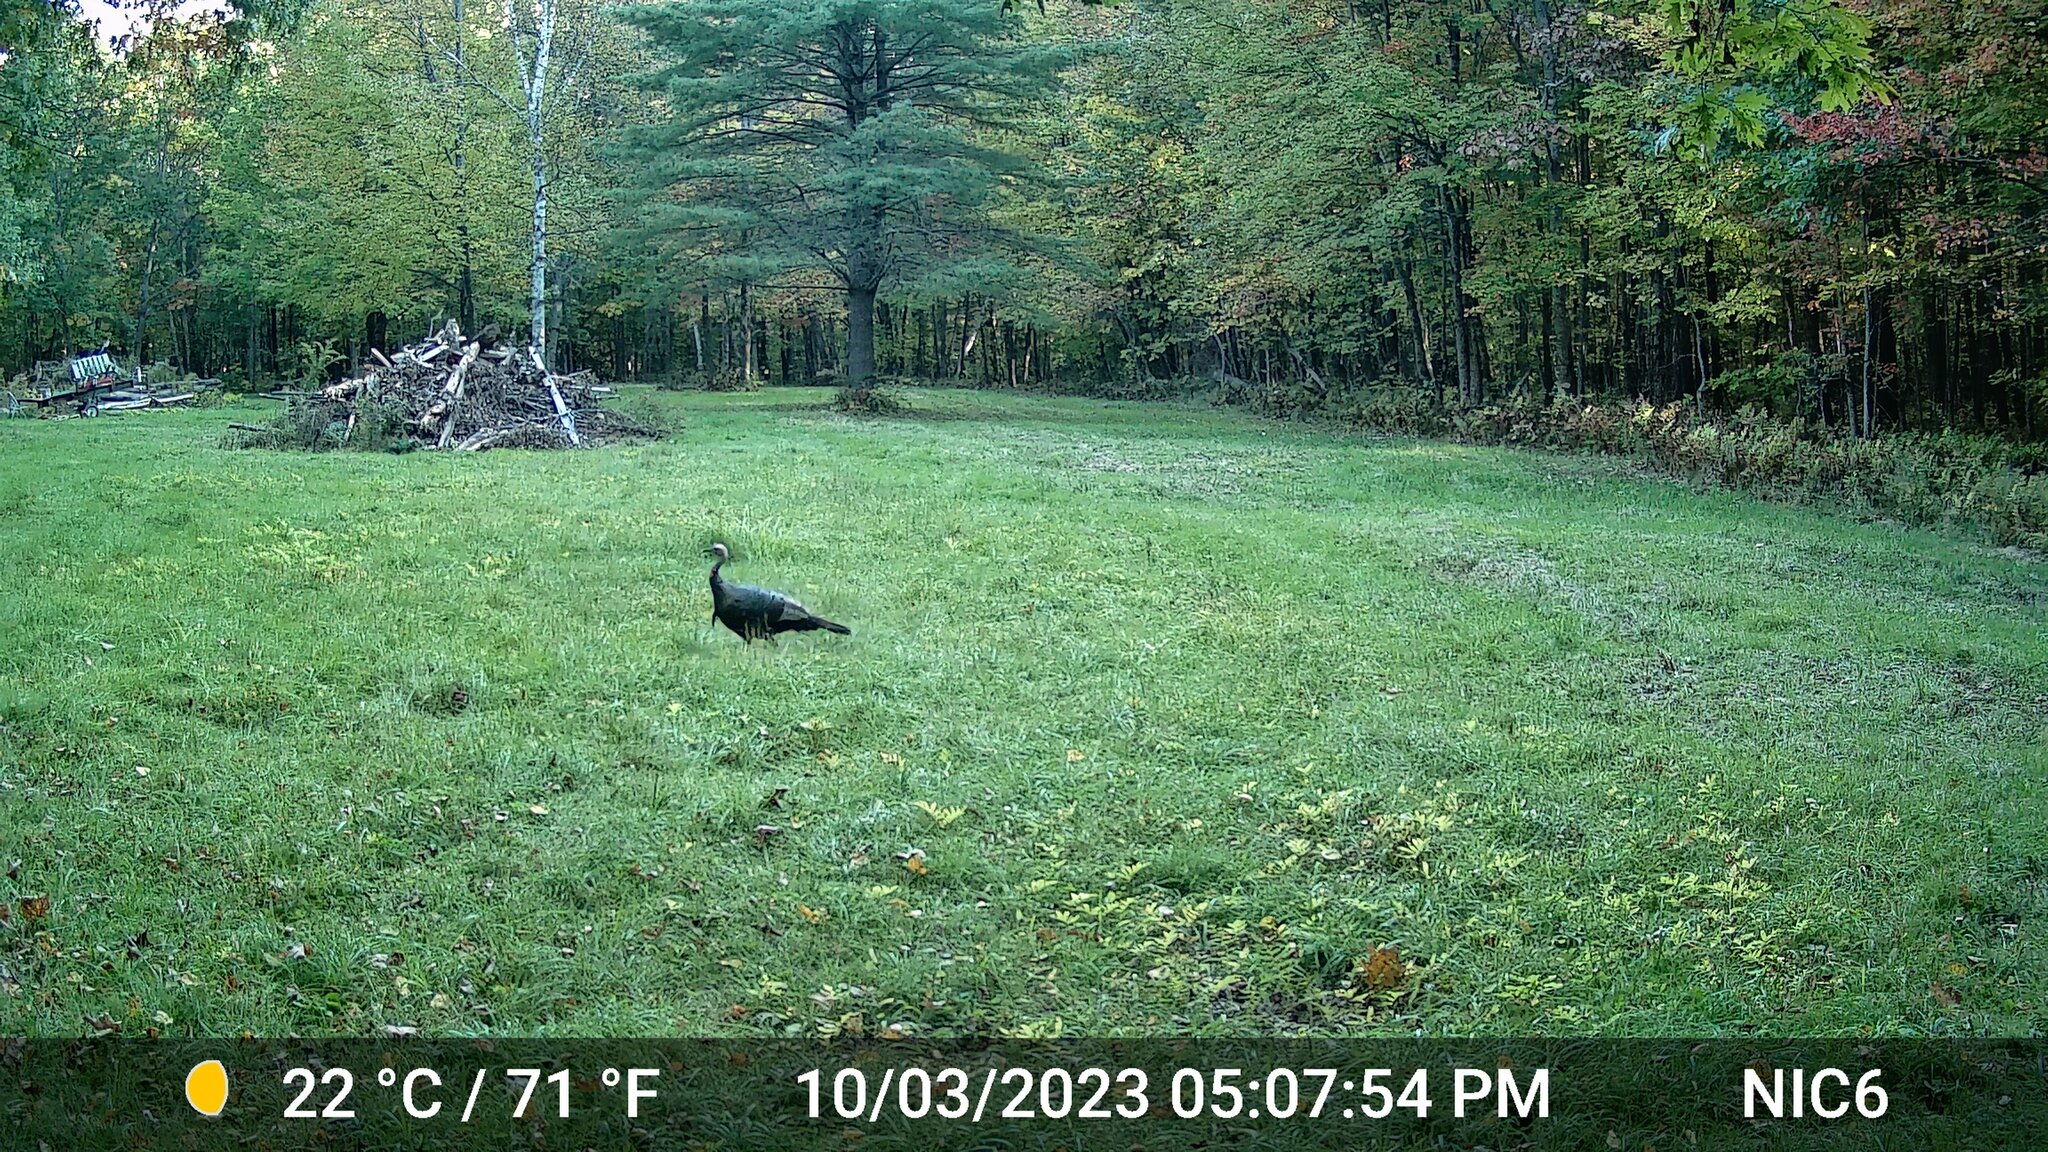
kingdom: Animalia
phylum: Chordata
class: Aves
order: Galliformes
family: Phasianidae
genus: Meleagris
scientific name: Meleagris gallopavo
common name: Wild turkey
